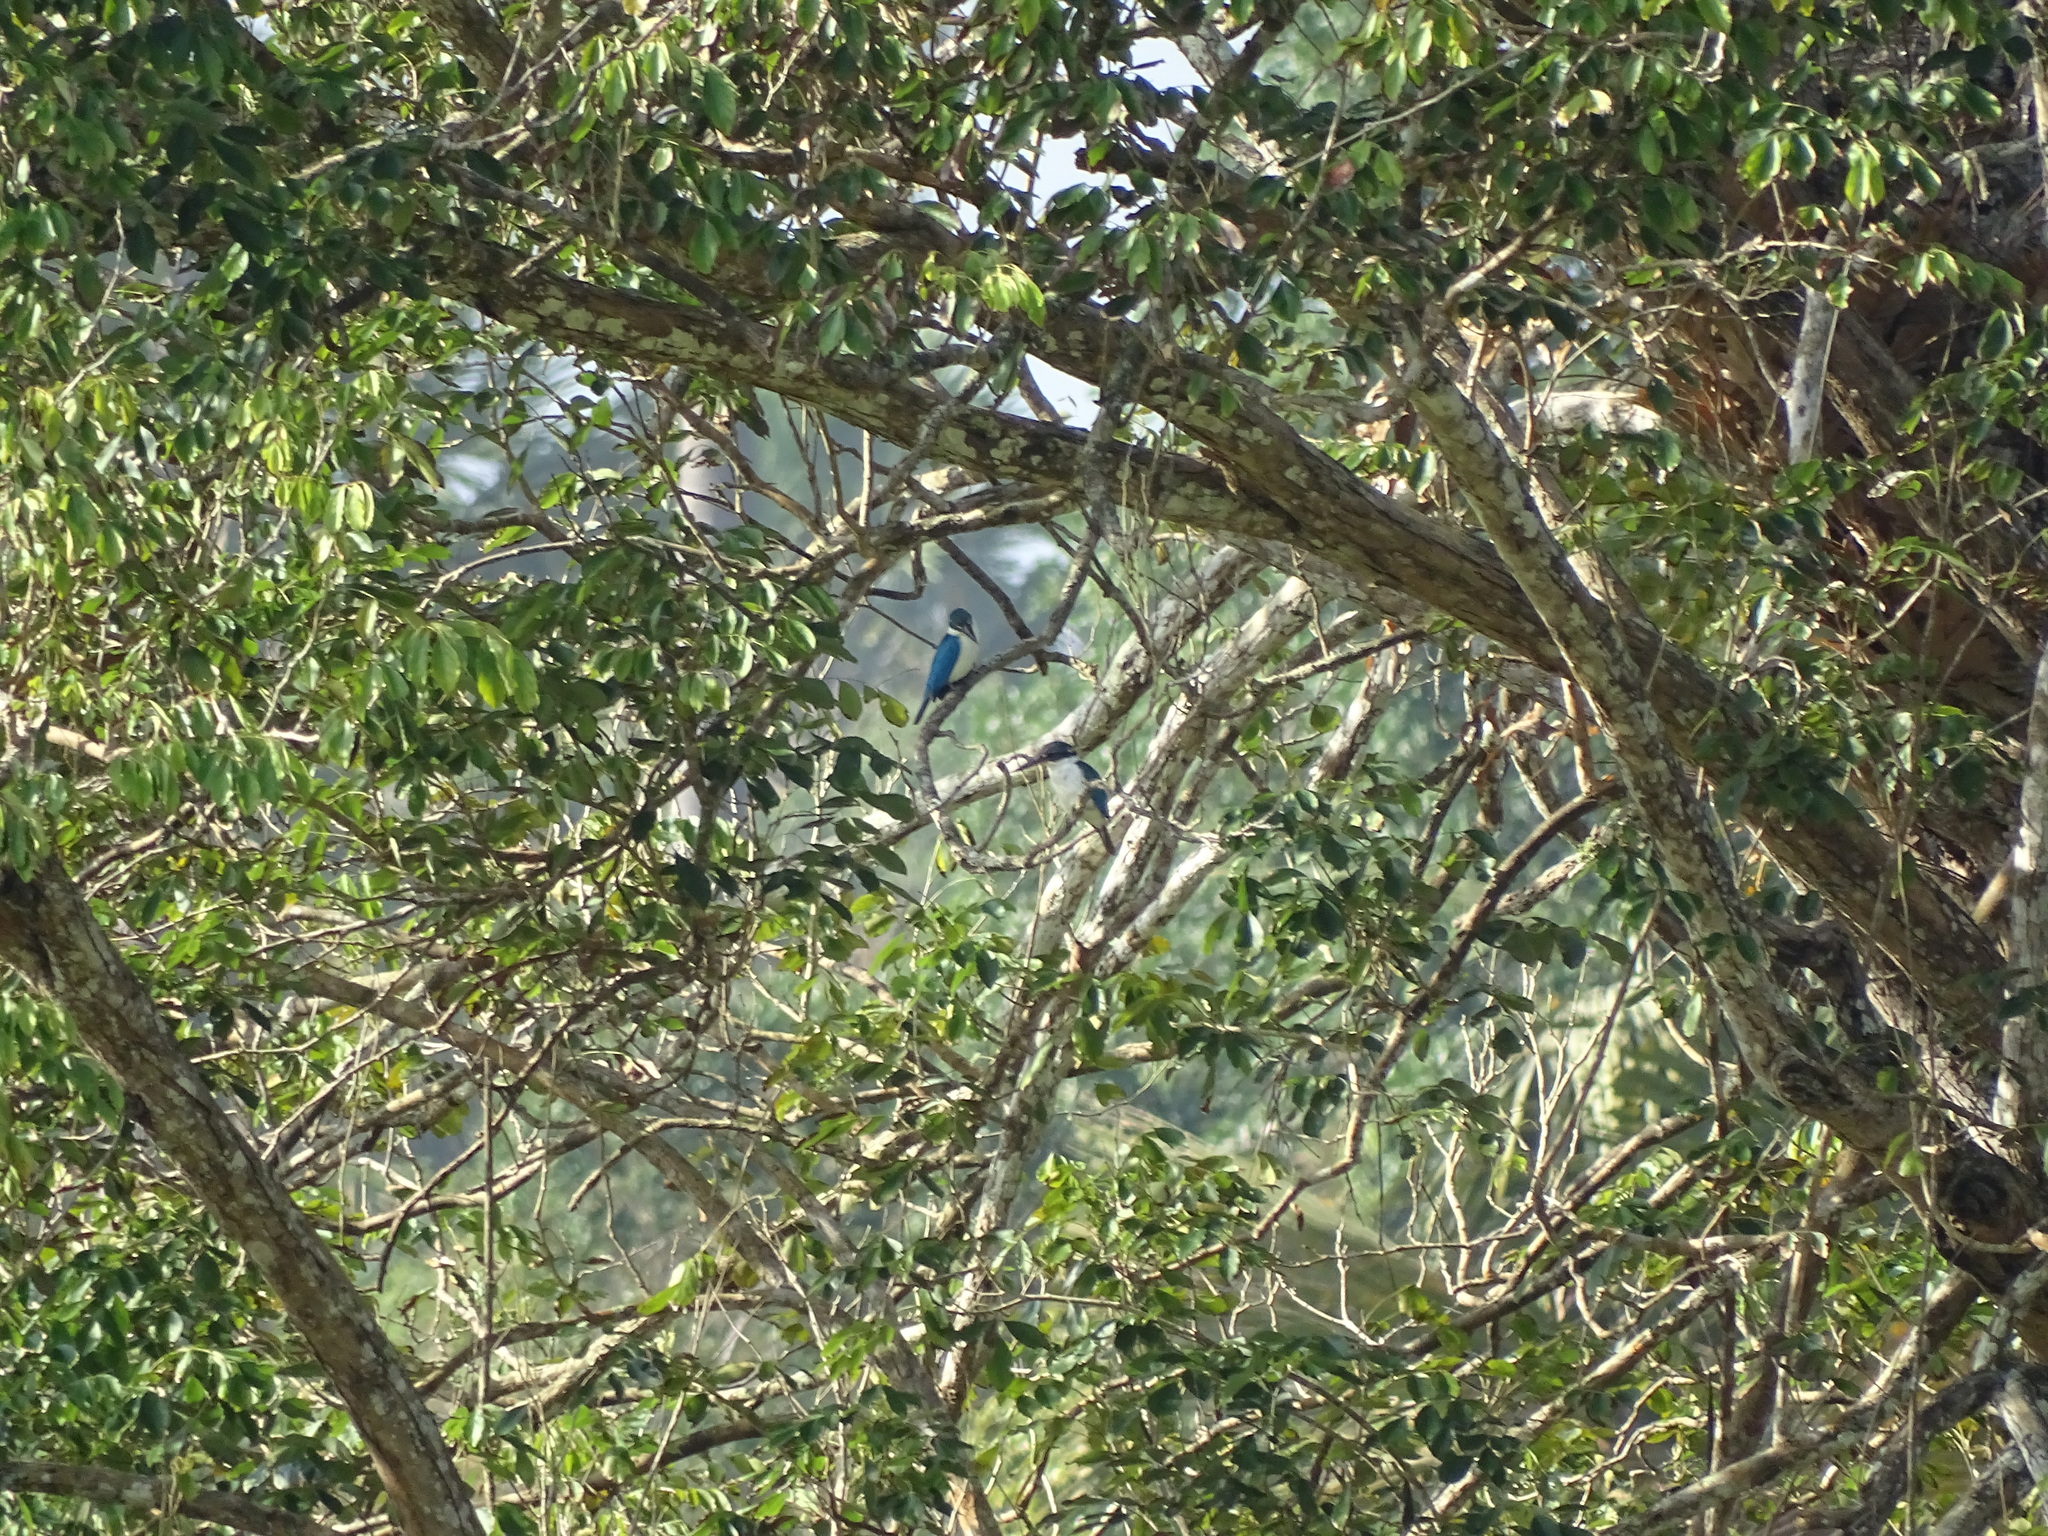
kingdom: Animalia
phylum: Chordata
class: Aves
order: Coraciiformes
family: Alcedinidae
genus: Todiramphus
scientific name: Todiramphus chloris
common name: Collared kingfisher
